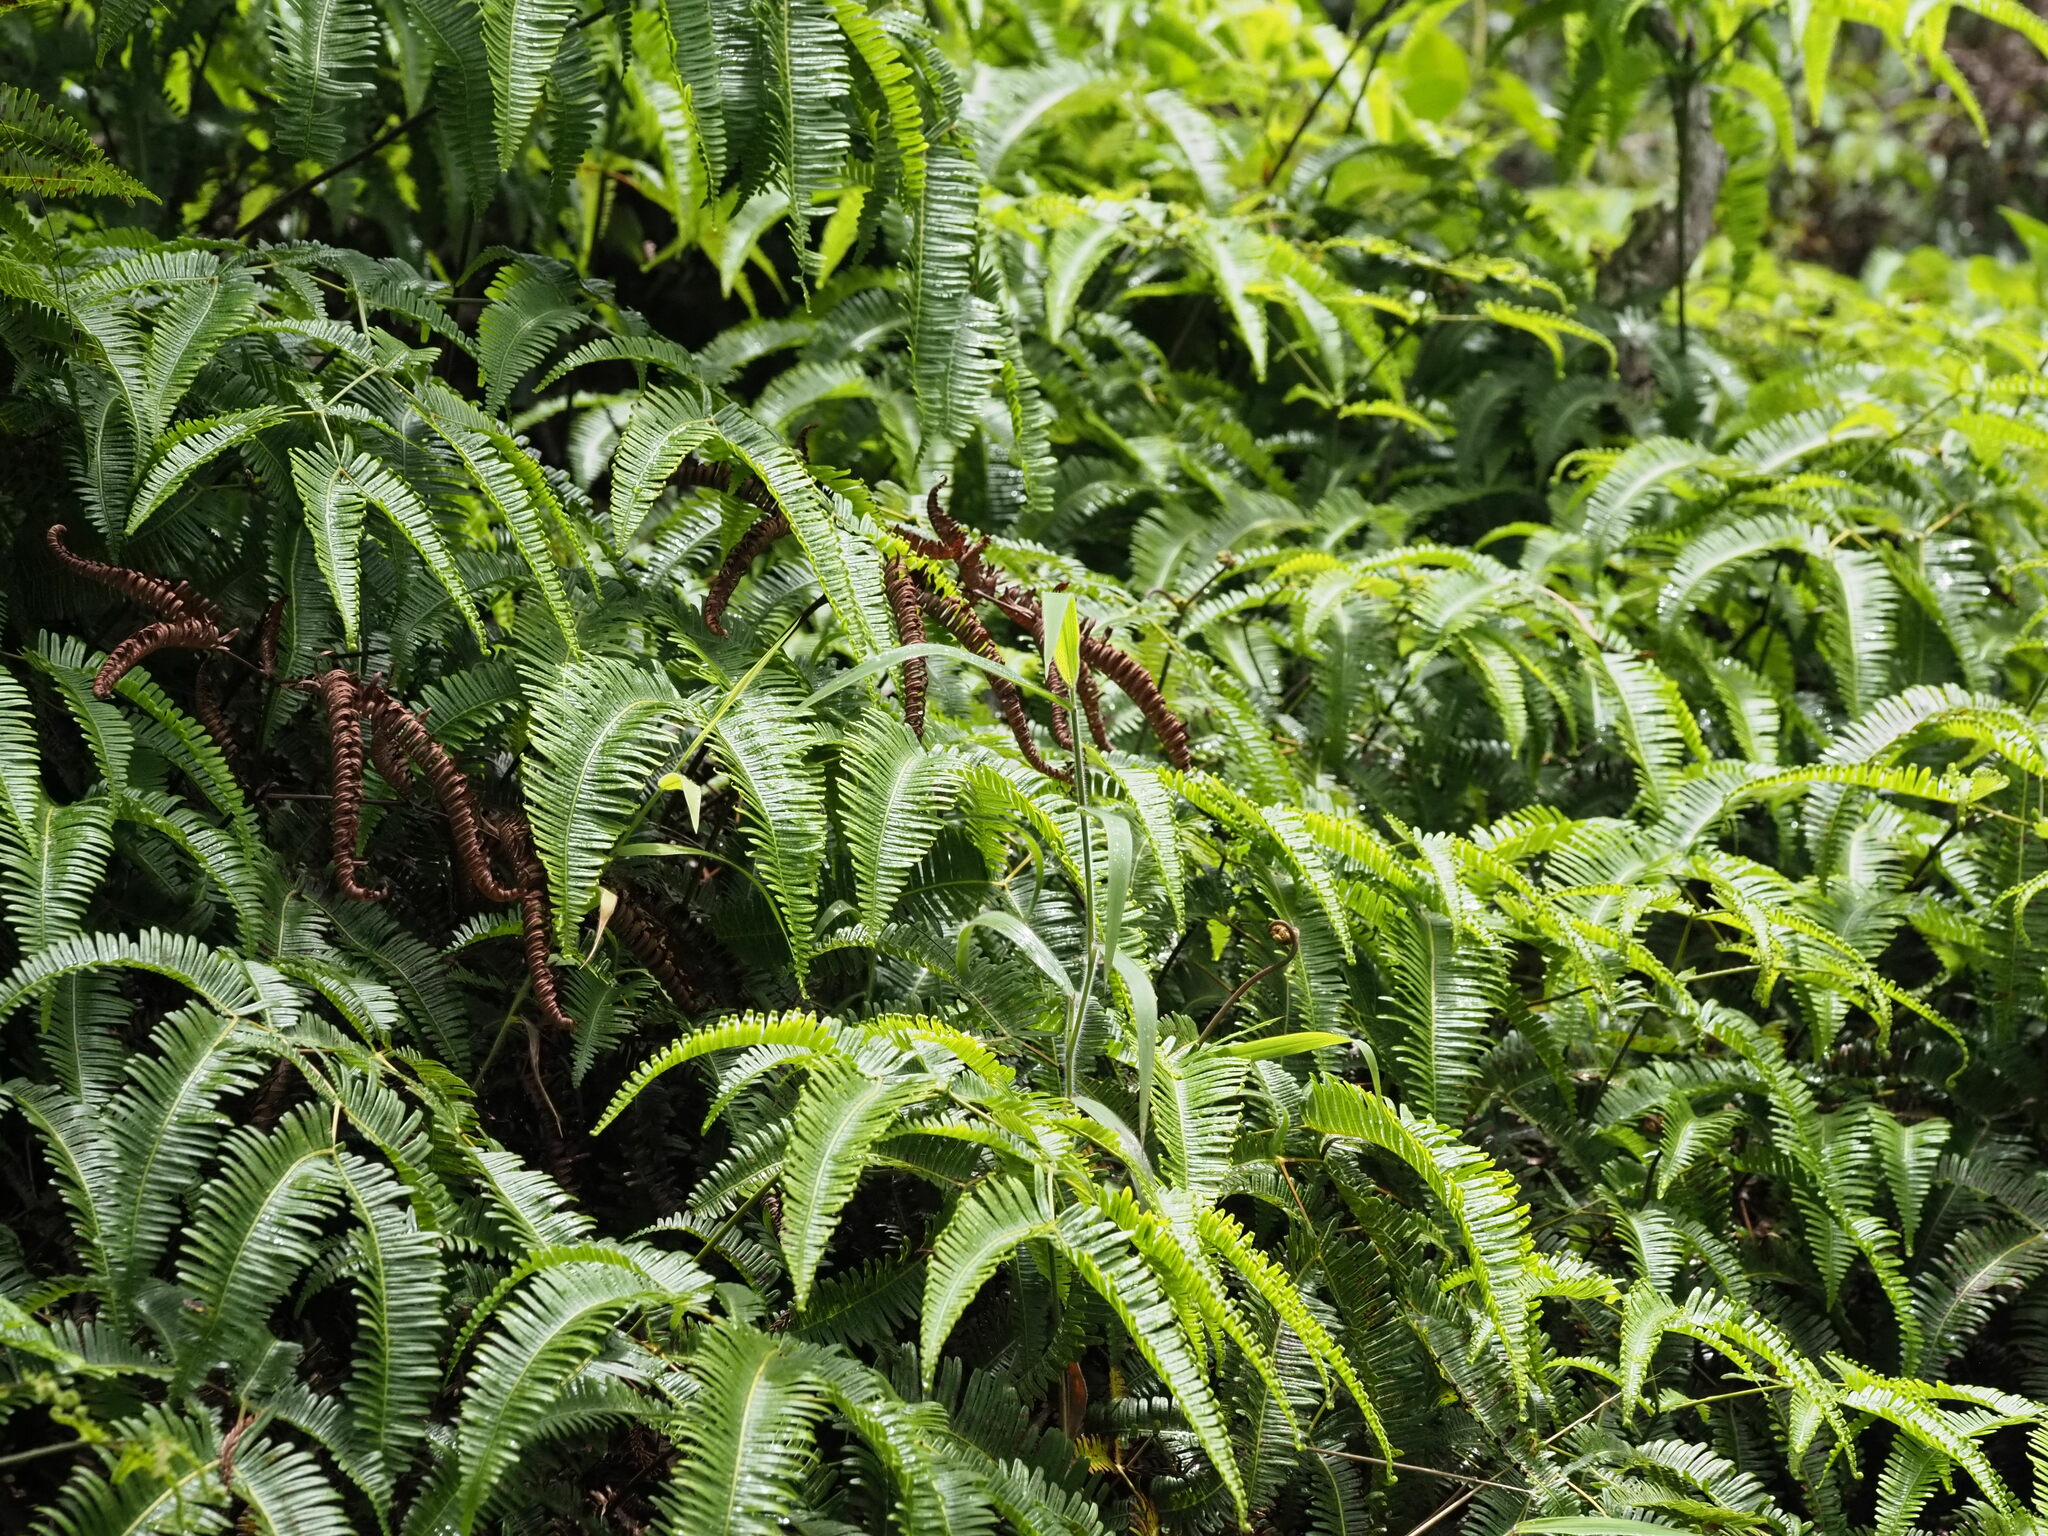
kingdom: Plantae
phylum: Tracheophyta
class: Liliopsida
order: Poales
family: Poaceae
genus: Melinis
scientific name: Melinis minutiflora
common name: Molassesgrass
